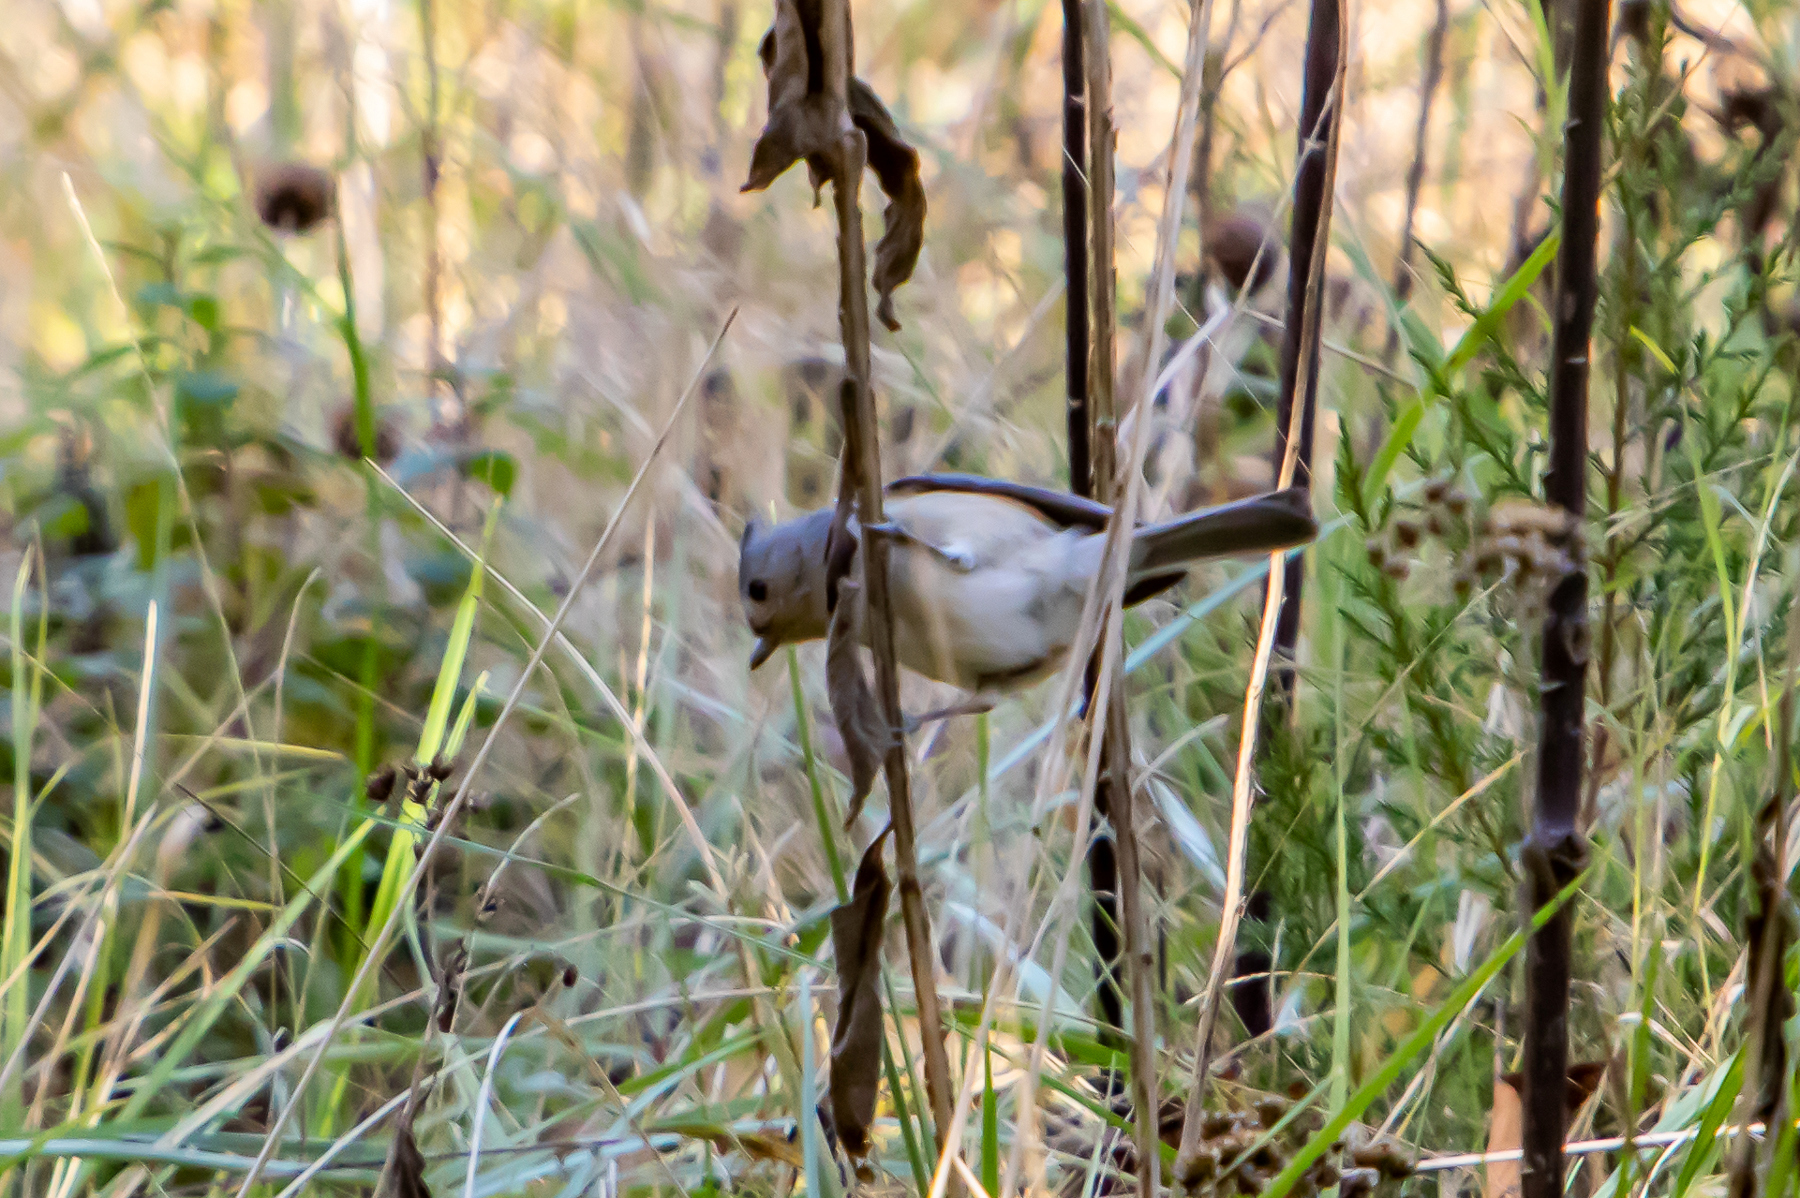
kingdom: Animalia
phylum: Chordata
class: Aves
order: Passeriformes
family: Paridae
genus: Baeolophus
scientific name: Baeolophus bicolor
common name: Tufted titmouse
